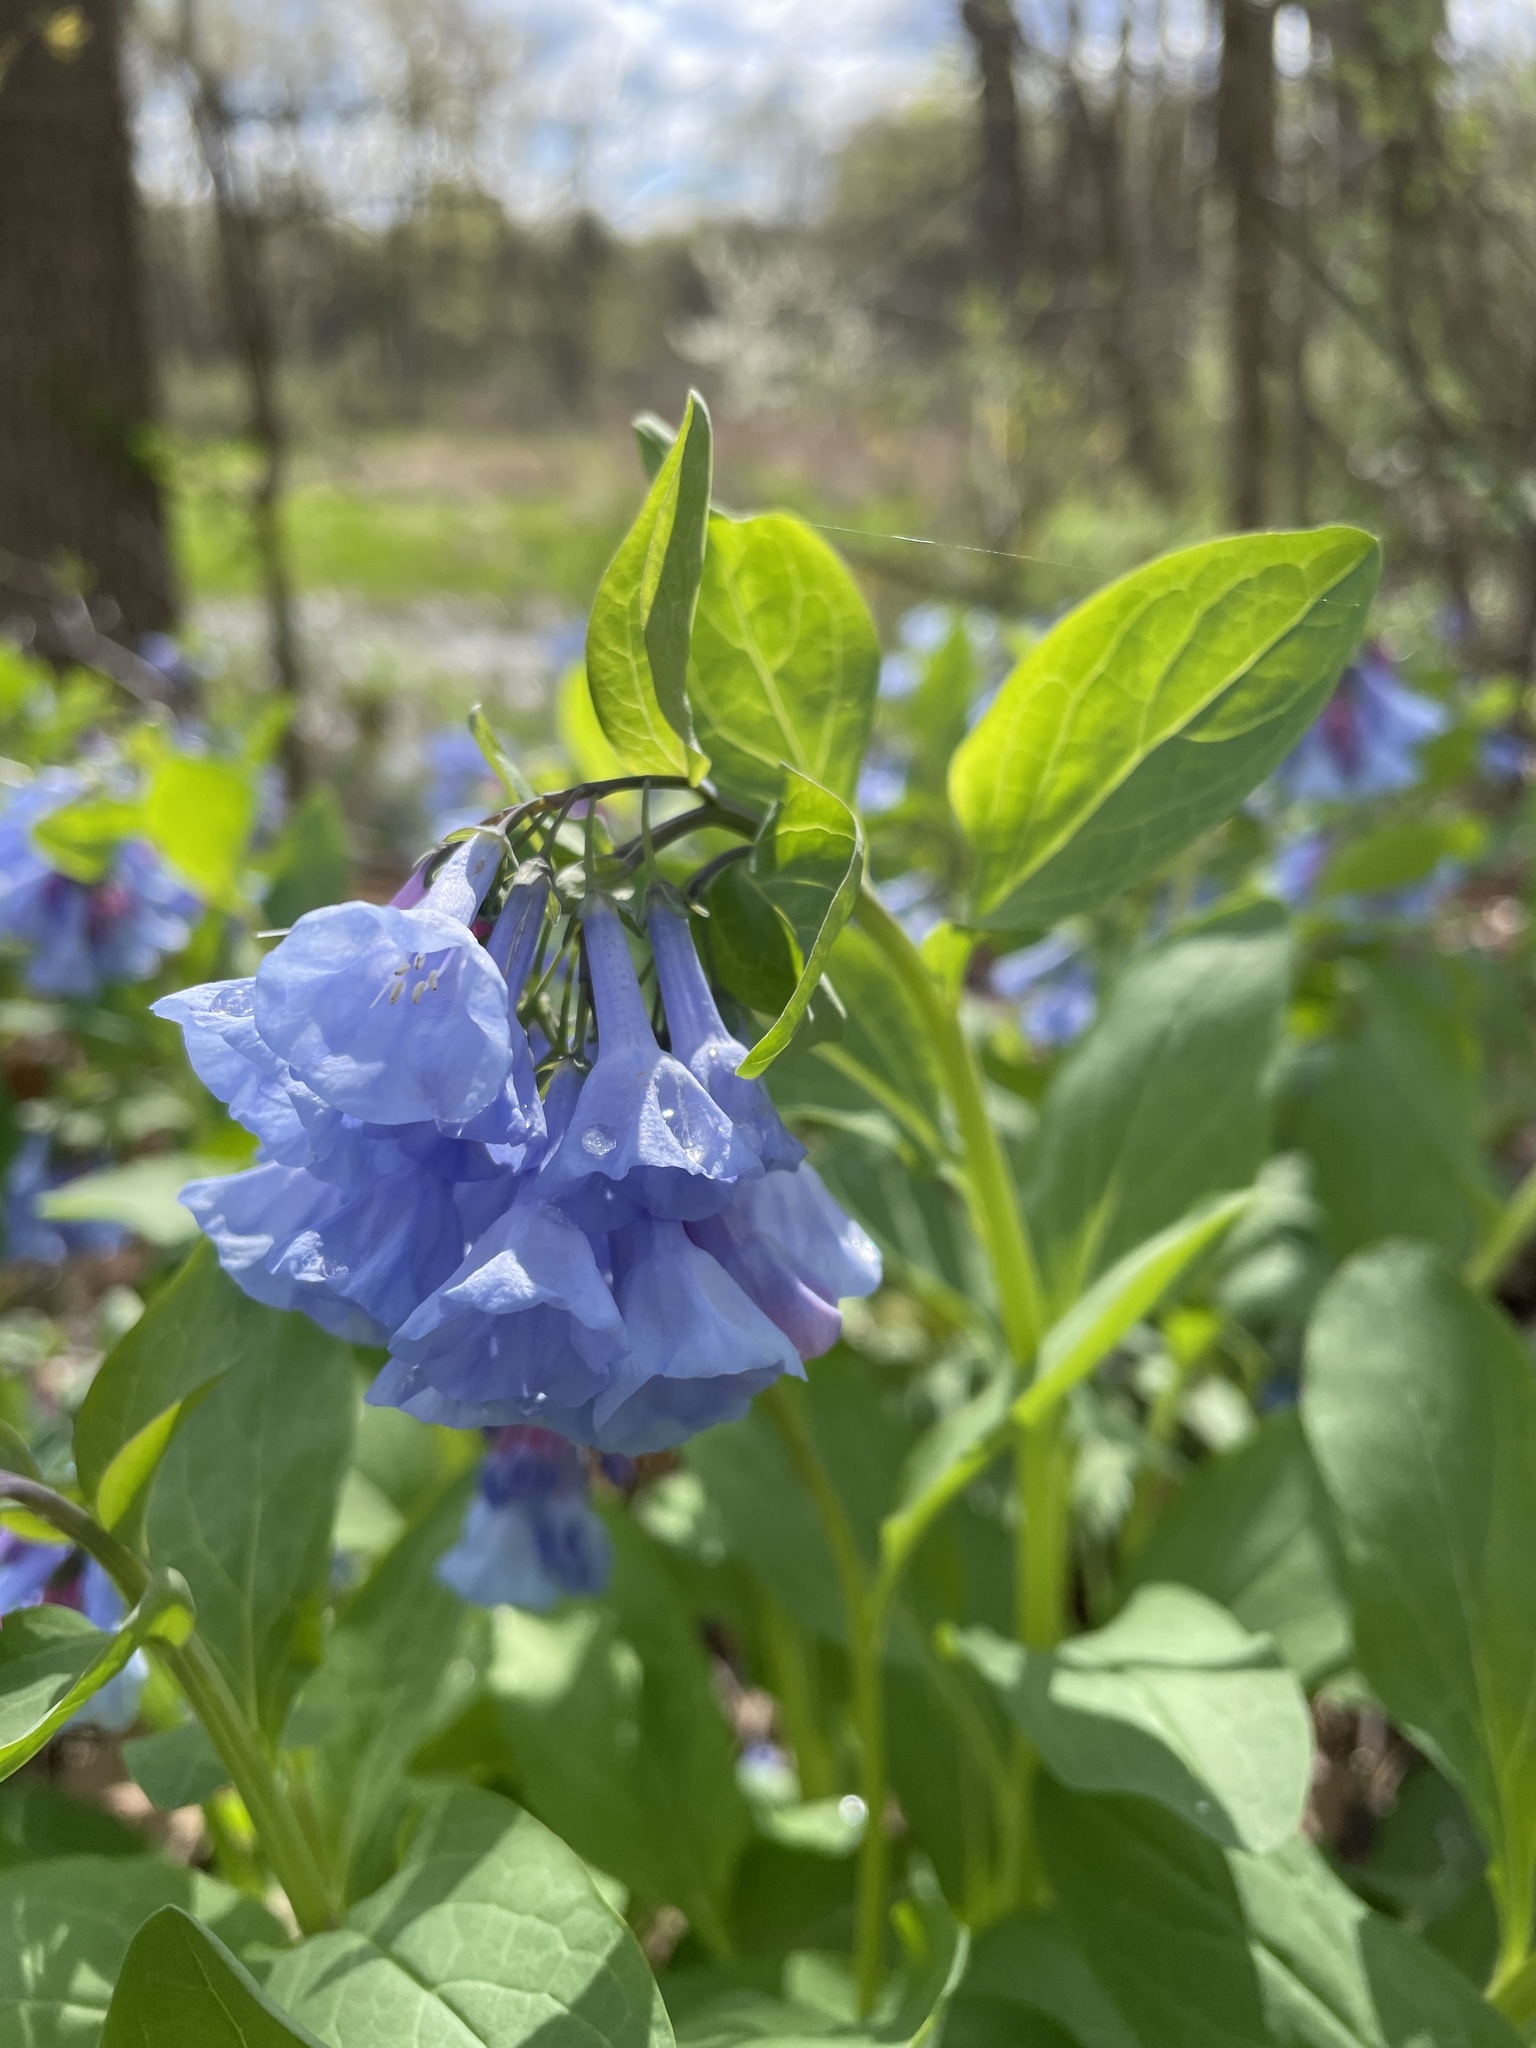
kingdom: Plantae
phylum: Tracheophyta
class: Magnoliopsida
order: Boraginales
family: Boraginaceae
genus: Mertensia
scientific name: Mertensia virginica
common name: Virginia bluebells
